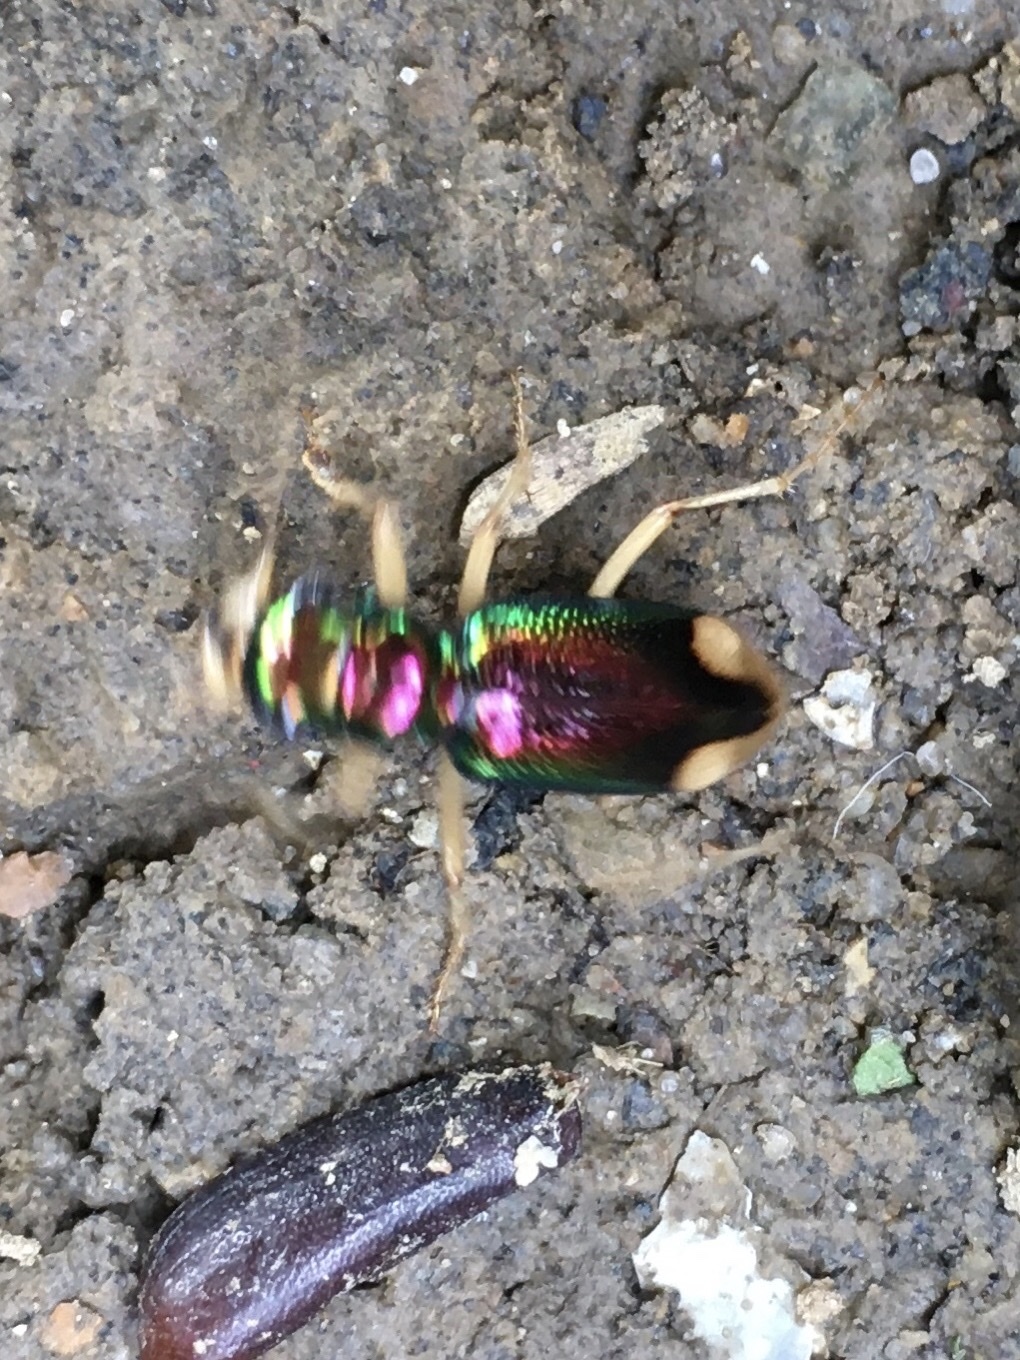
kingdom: Animalia
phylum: Arthropoda
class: Insecta
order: Coleoptera
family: Carabidae
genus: Tetracha
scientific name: Tetracha carolina
